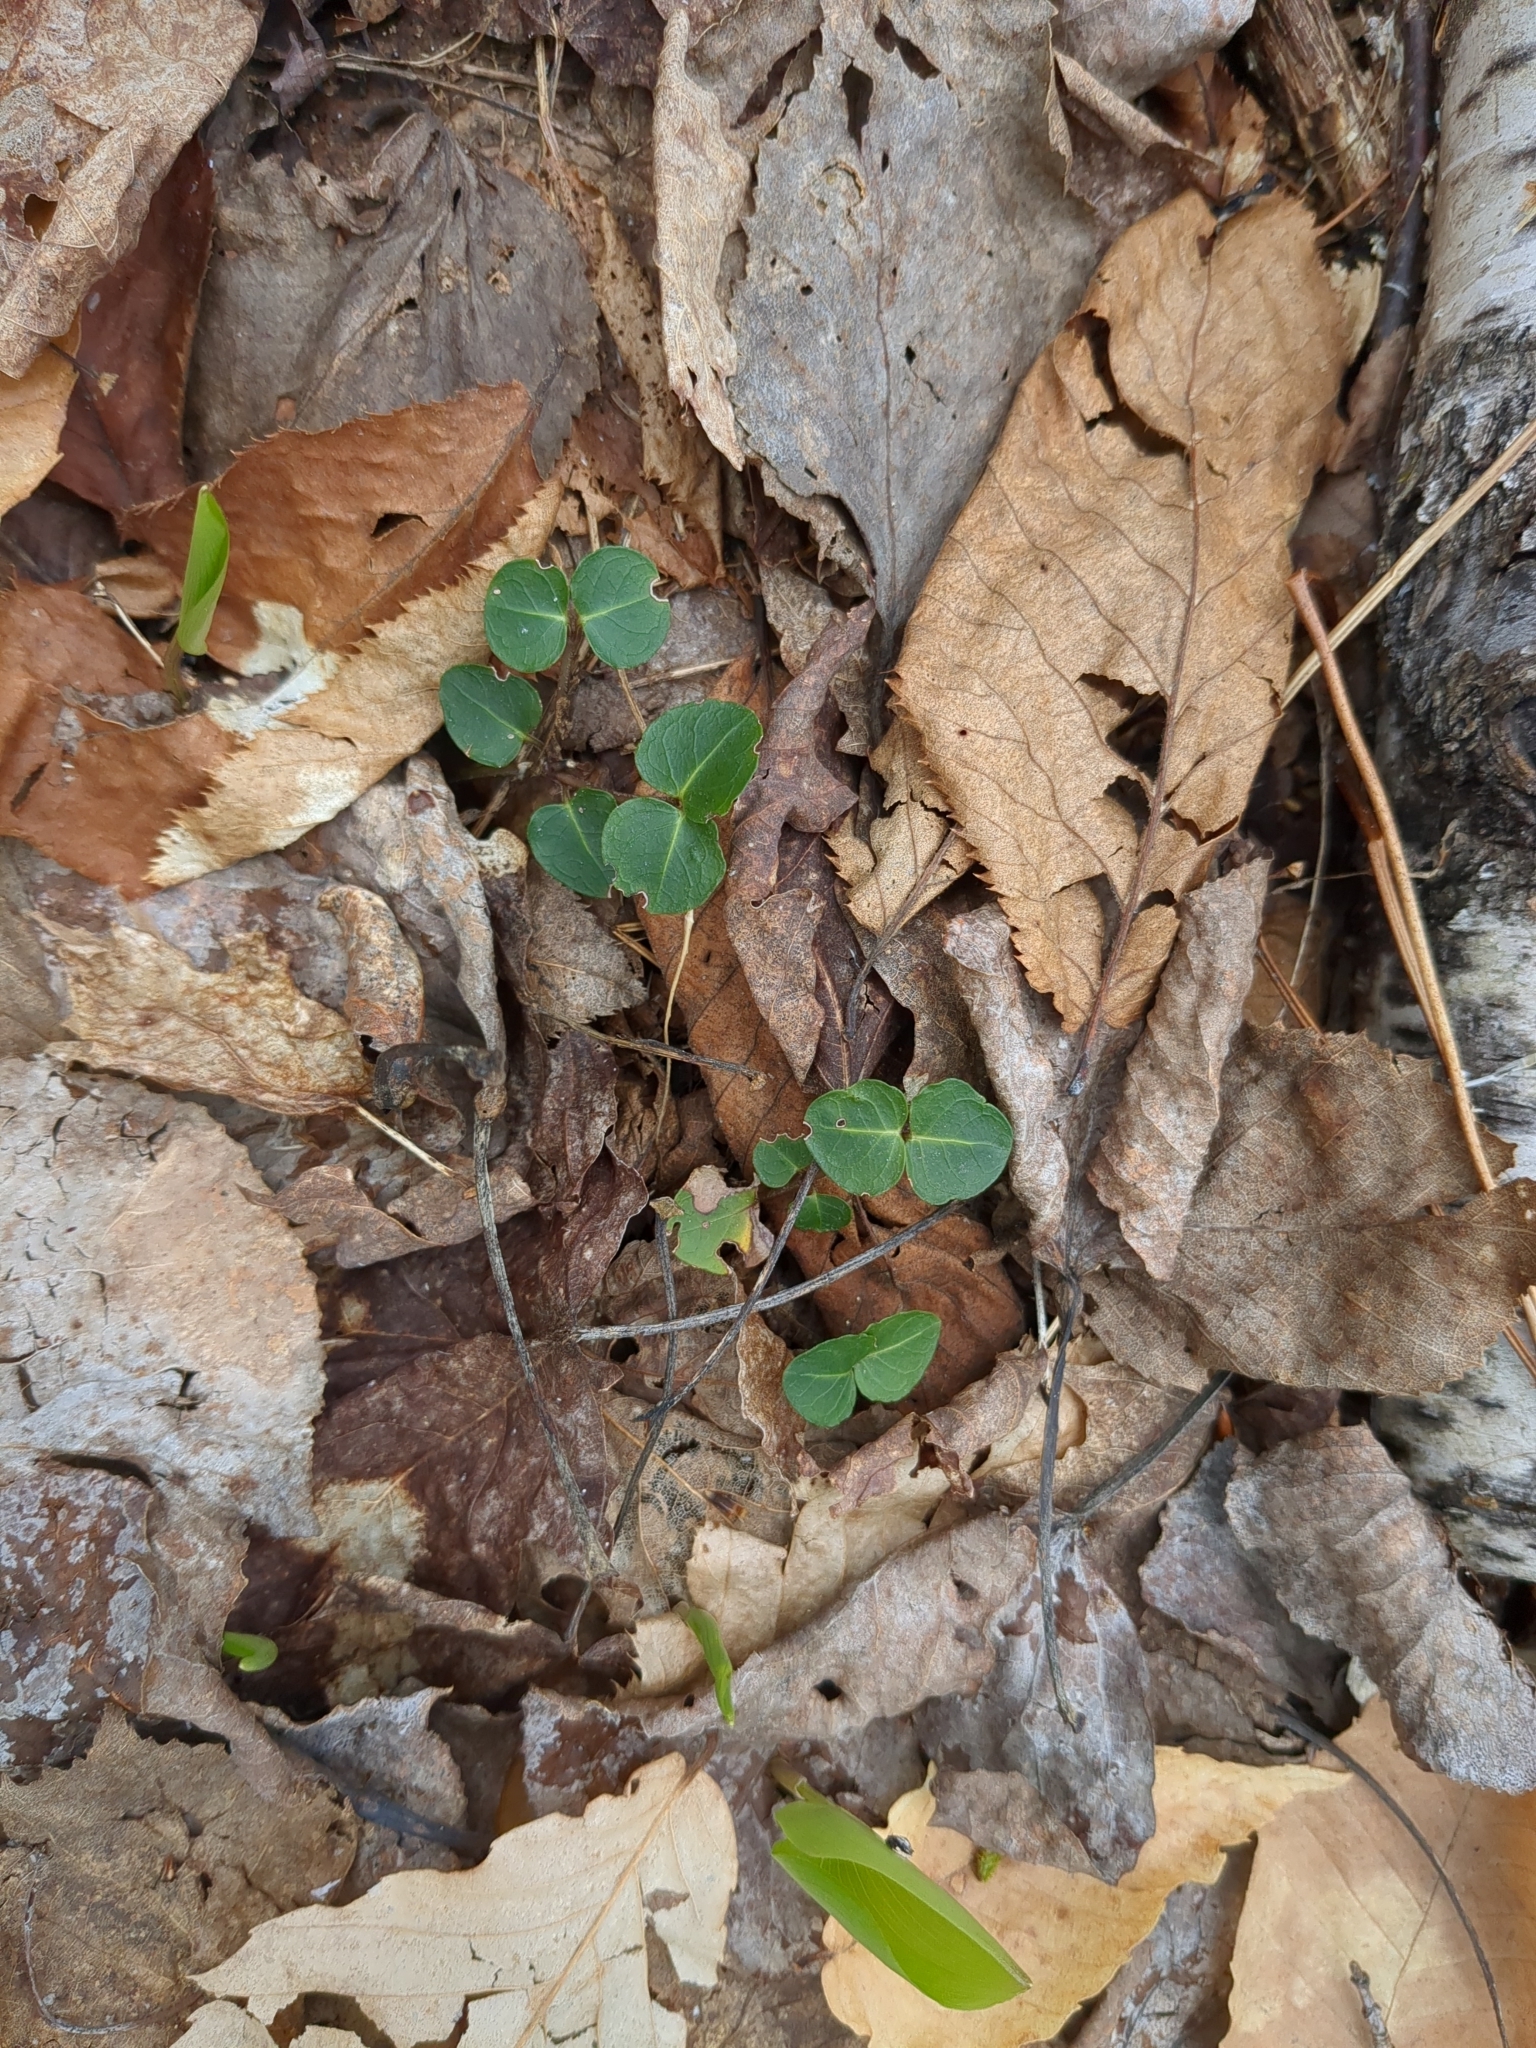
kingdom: Plantae
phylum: Tracheophyta
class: Magnoliopsida
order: Gentianales
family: Rubiaceae
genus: Mitchella
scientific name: Mitchella repens
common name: Partridge-berry
